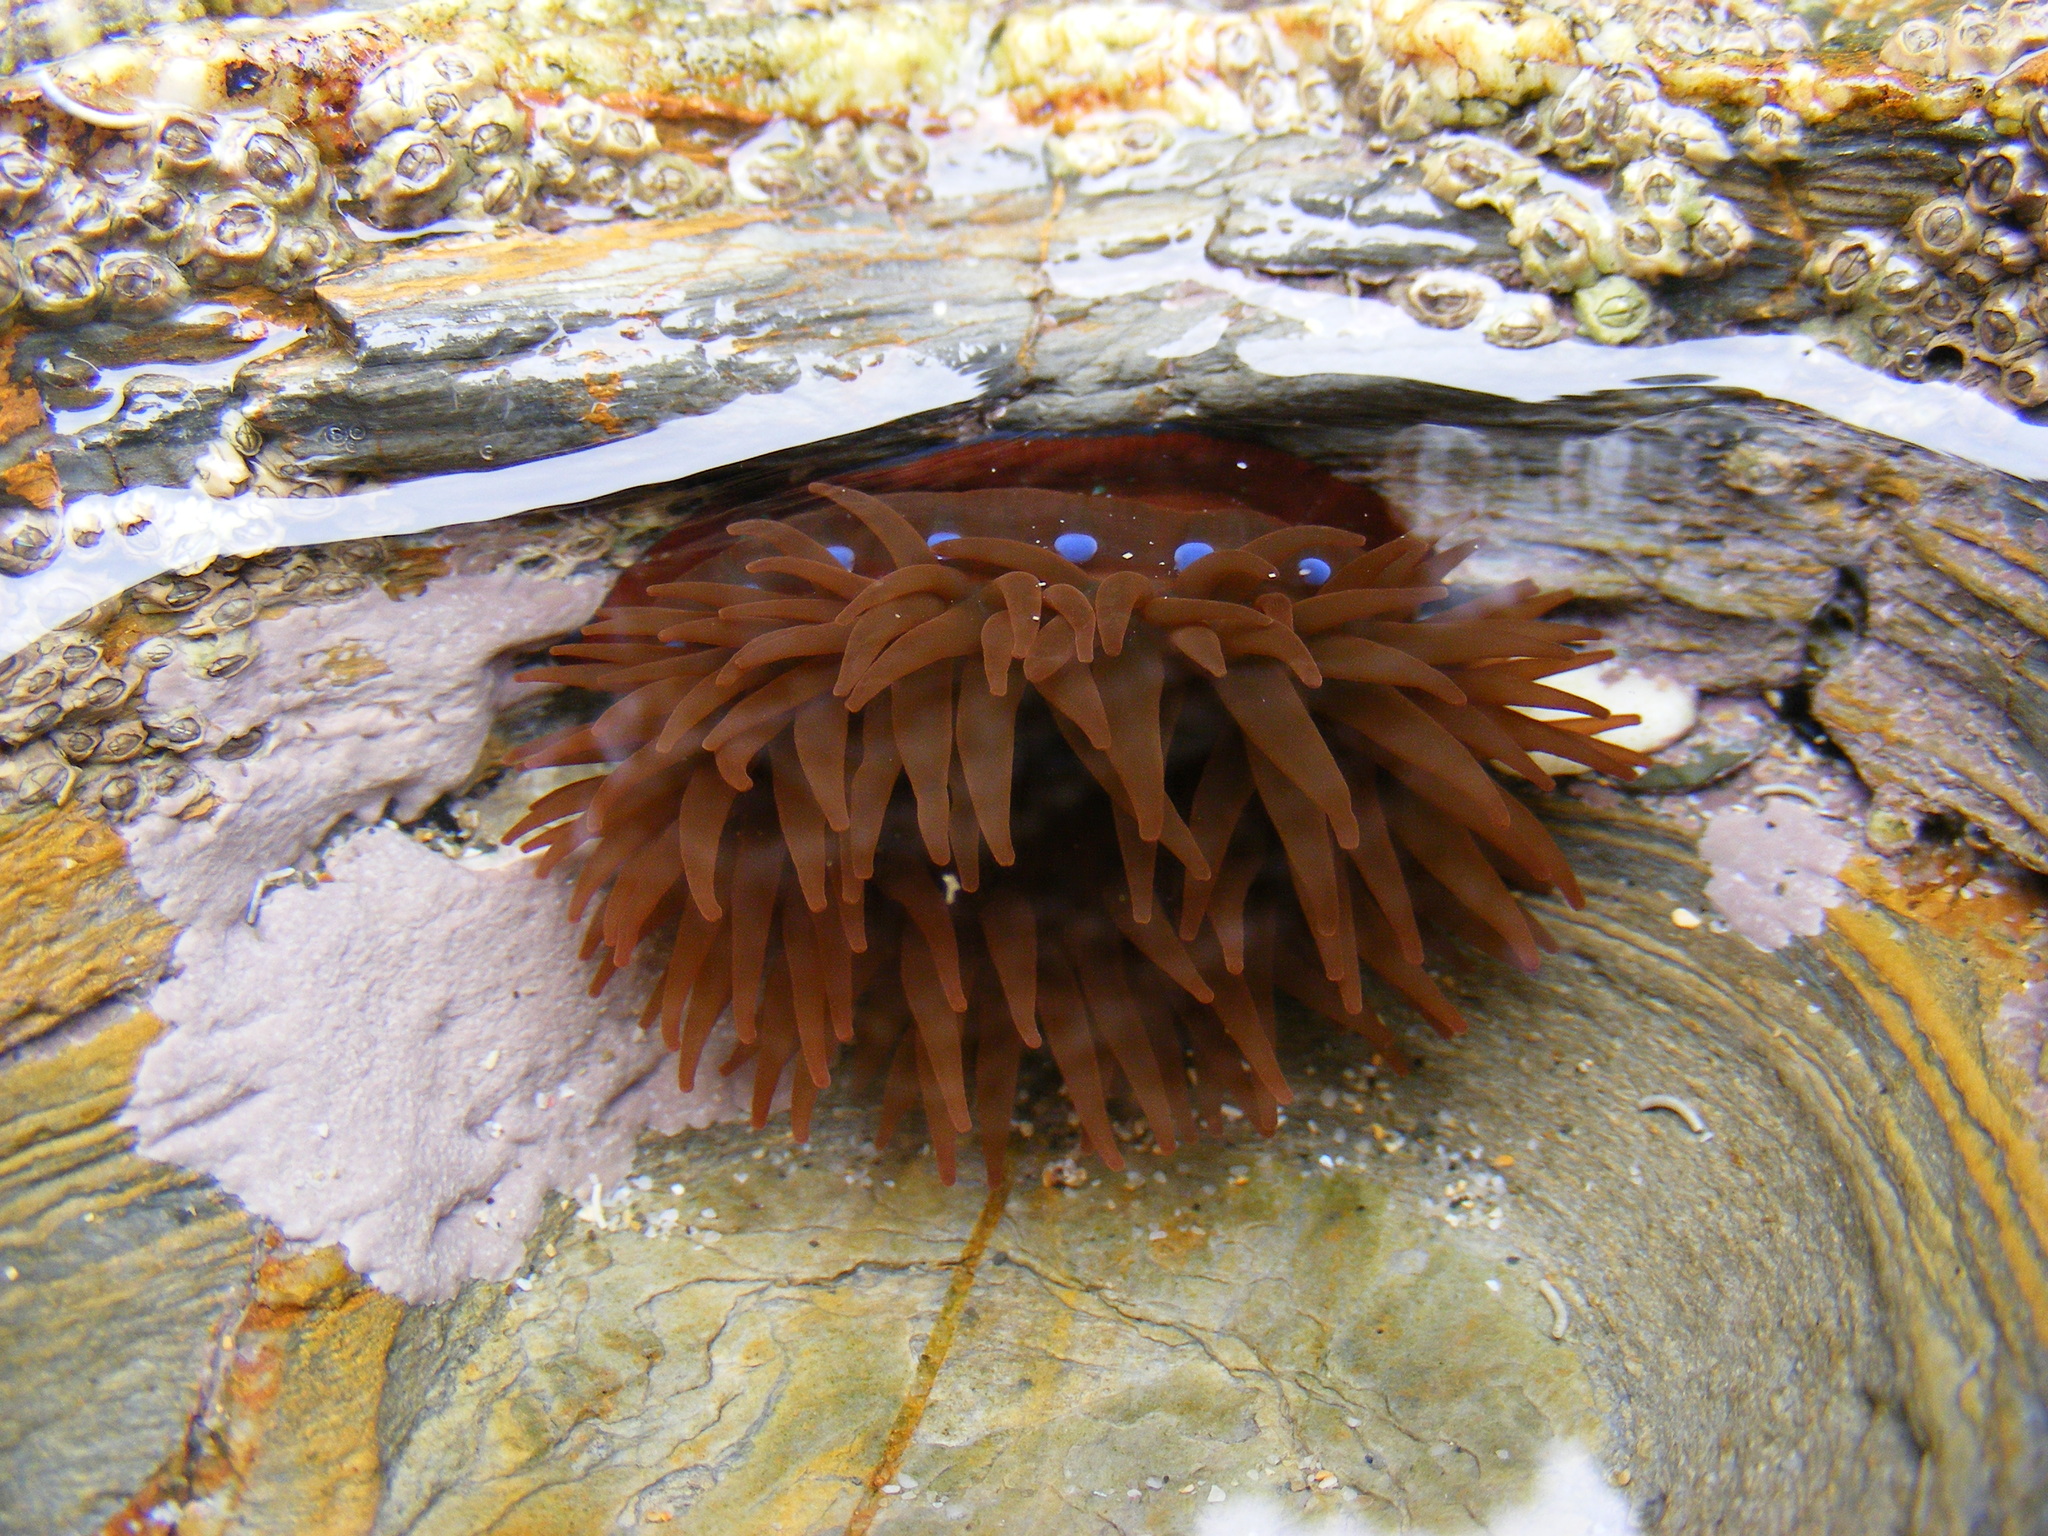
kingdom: Animalia
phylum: Cnidaria
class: Anthozoa
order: Actiniaria
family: Actiniidae
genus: Actinia
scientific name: Actinia equina
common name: Beadlet anemone
